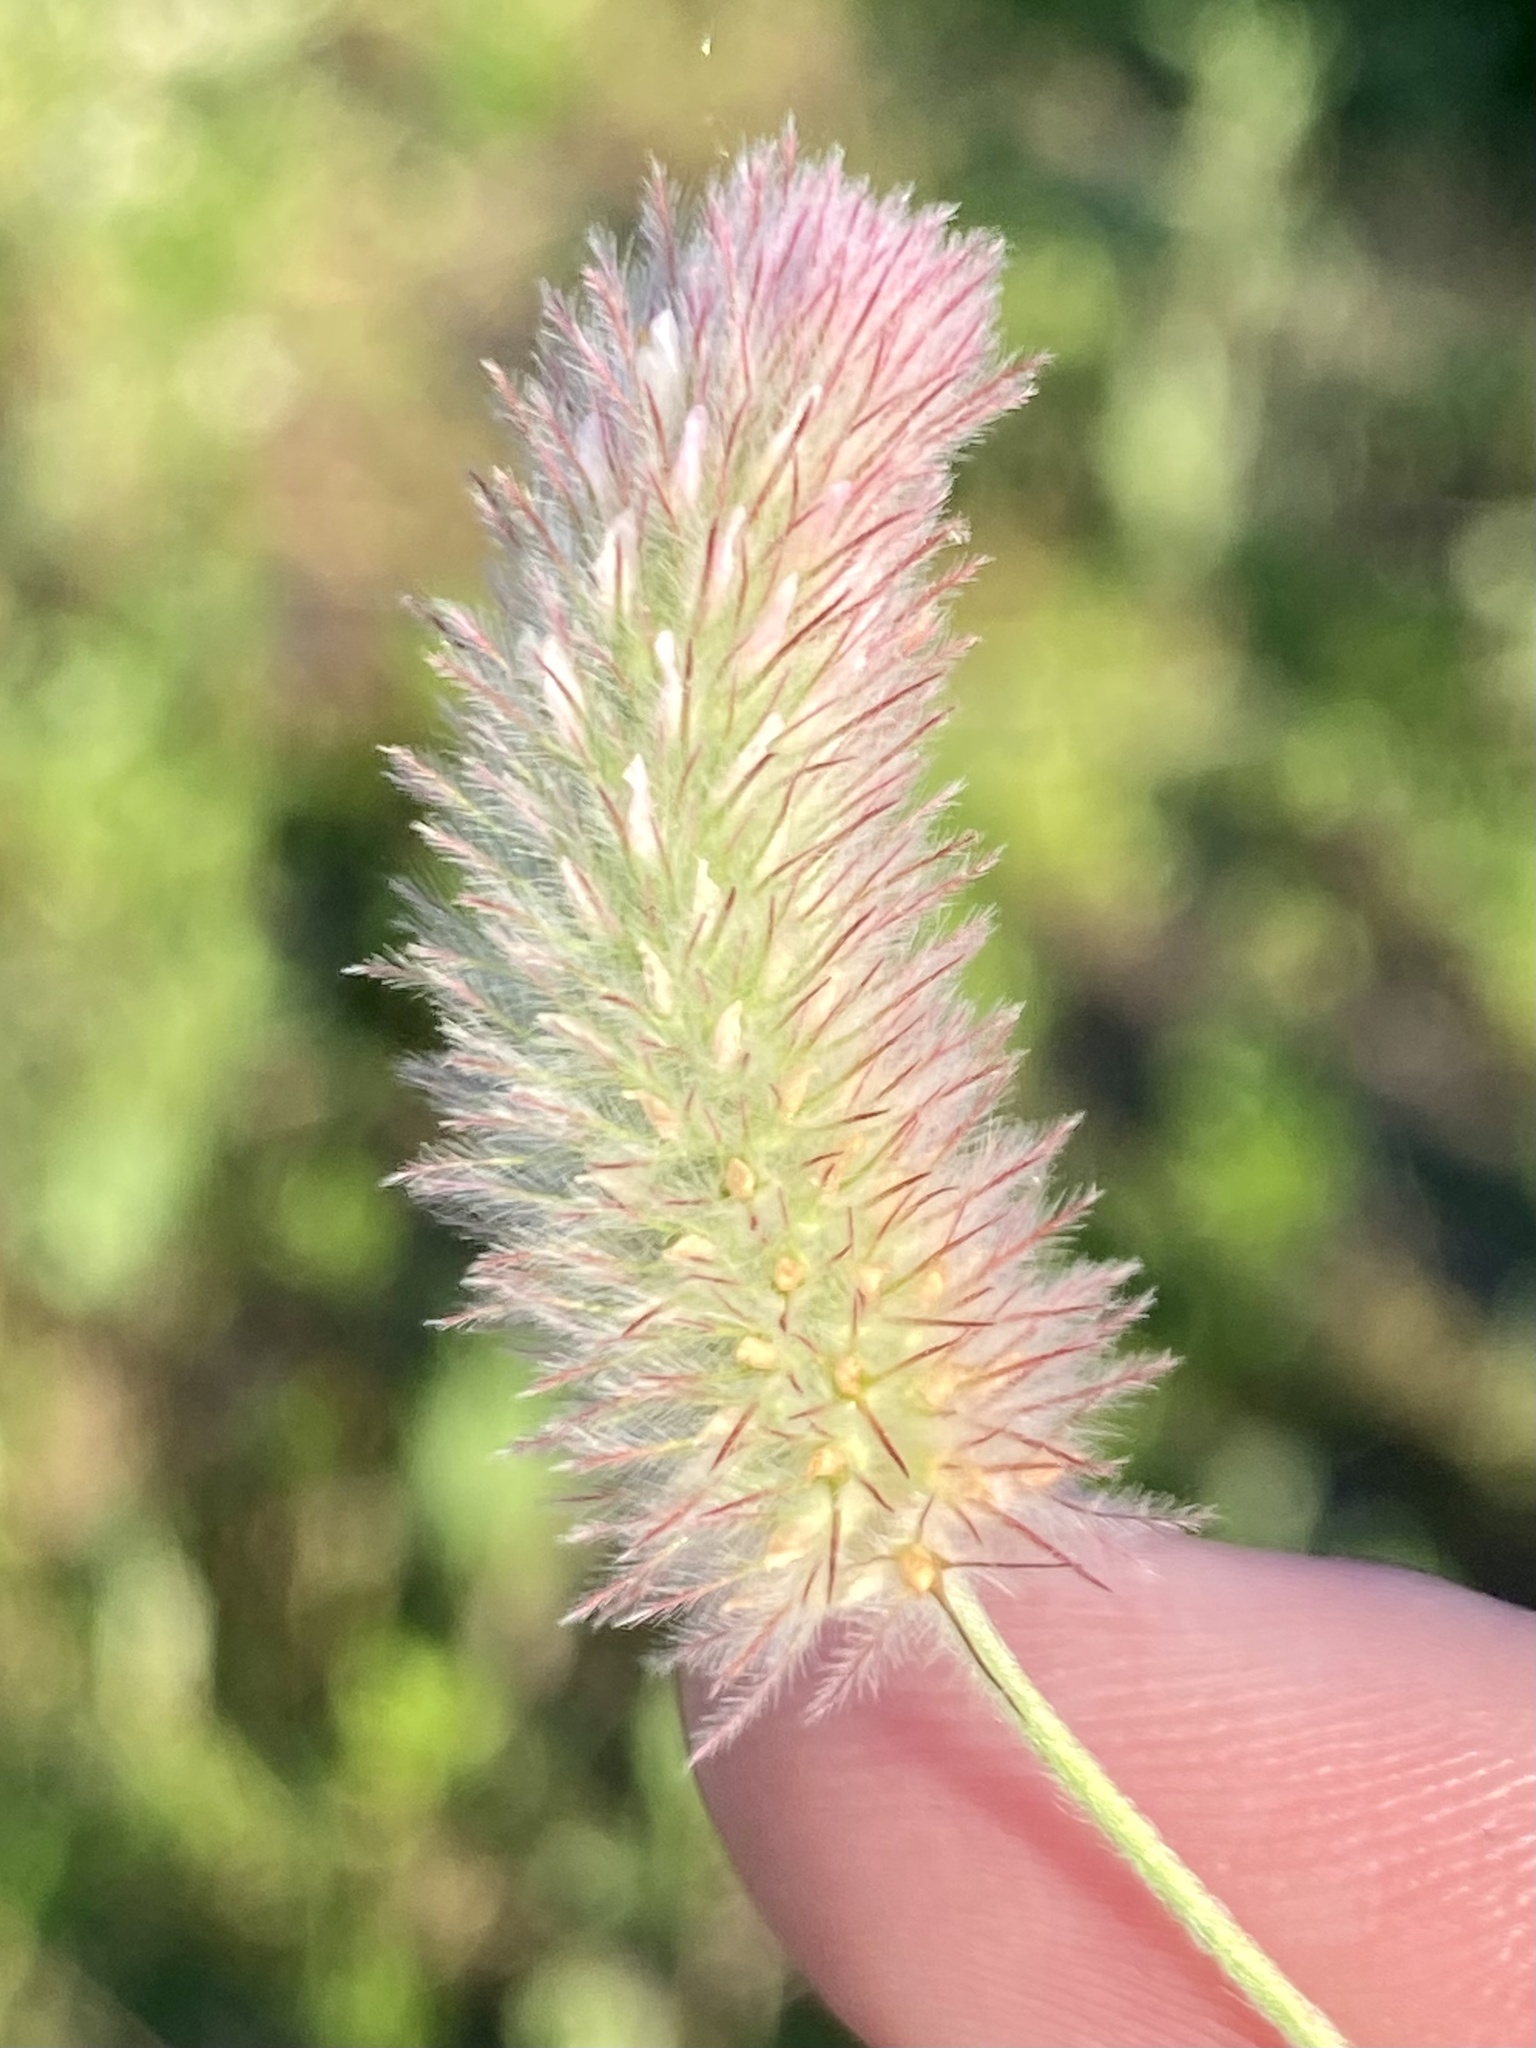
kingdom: Plantae
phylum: Tracheophyta
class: Magnoliopsida
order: Fabales
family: Fabaceae
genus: Trifolium
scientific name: Trifolium arvense
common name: Hare's-foot clover
